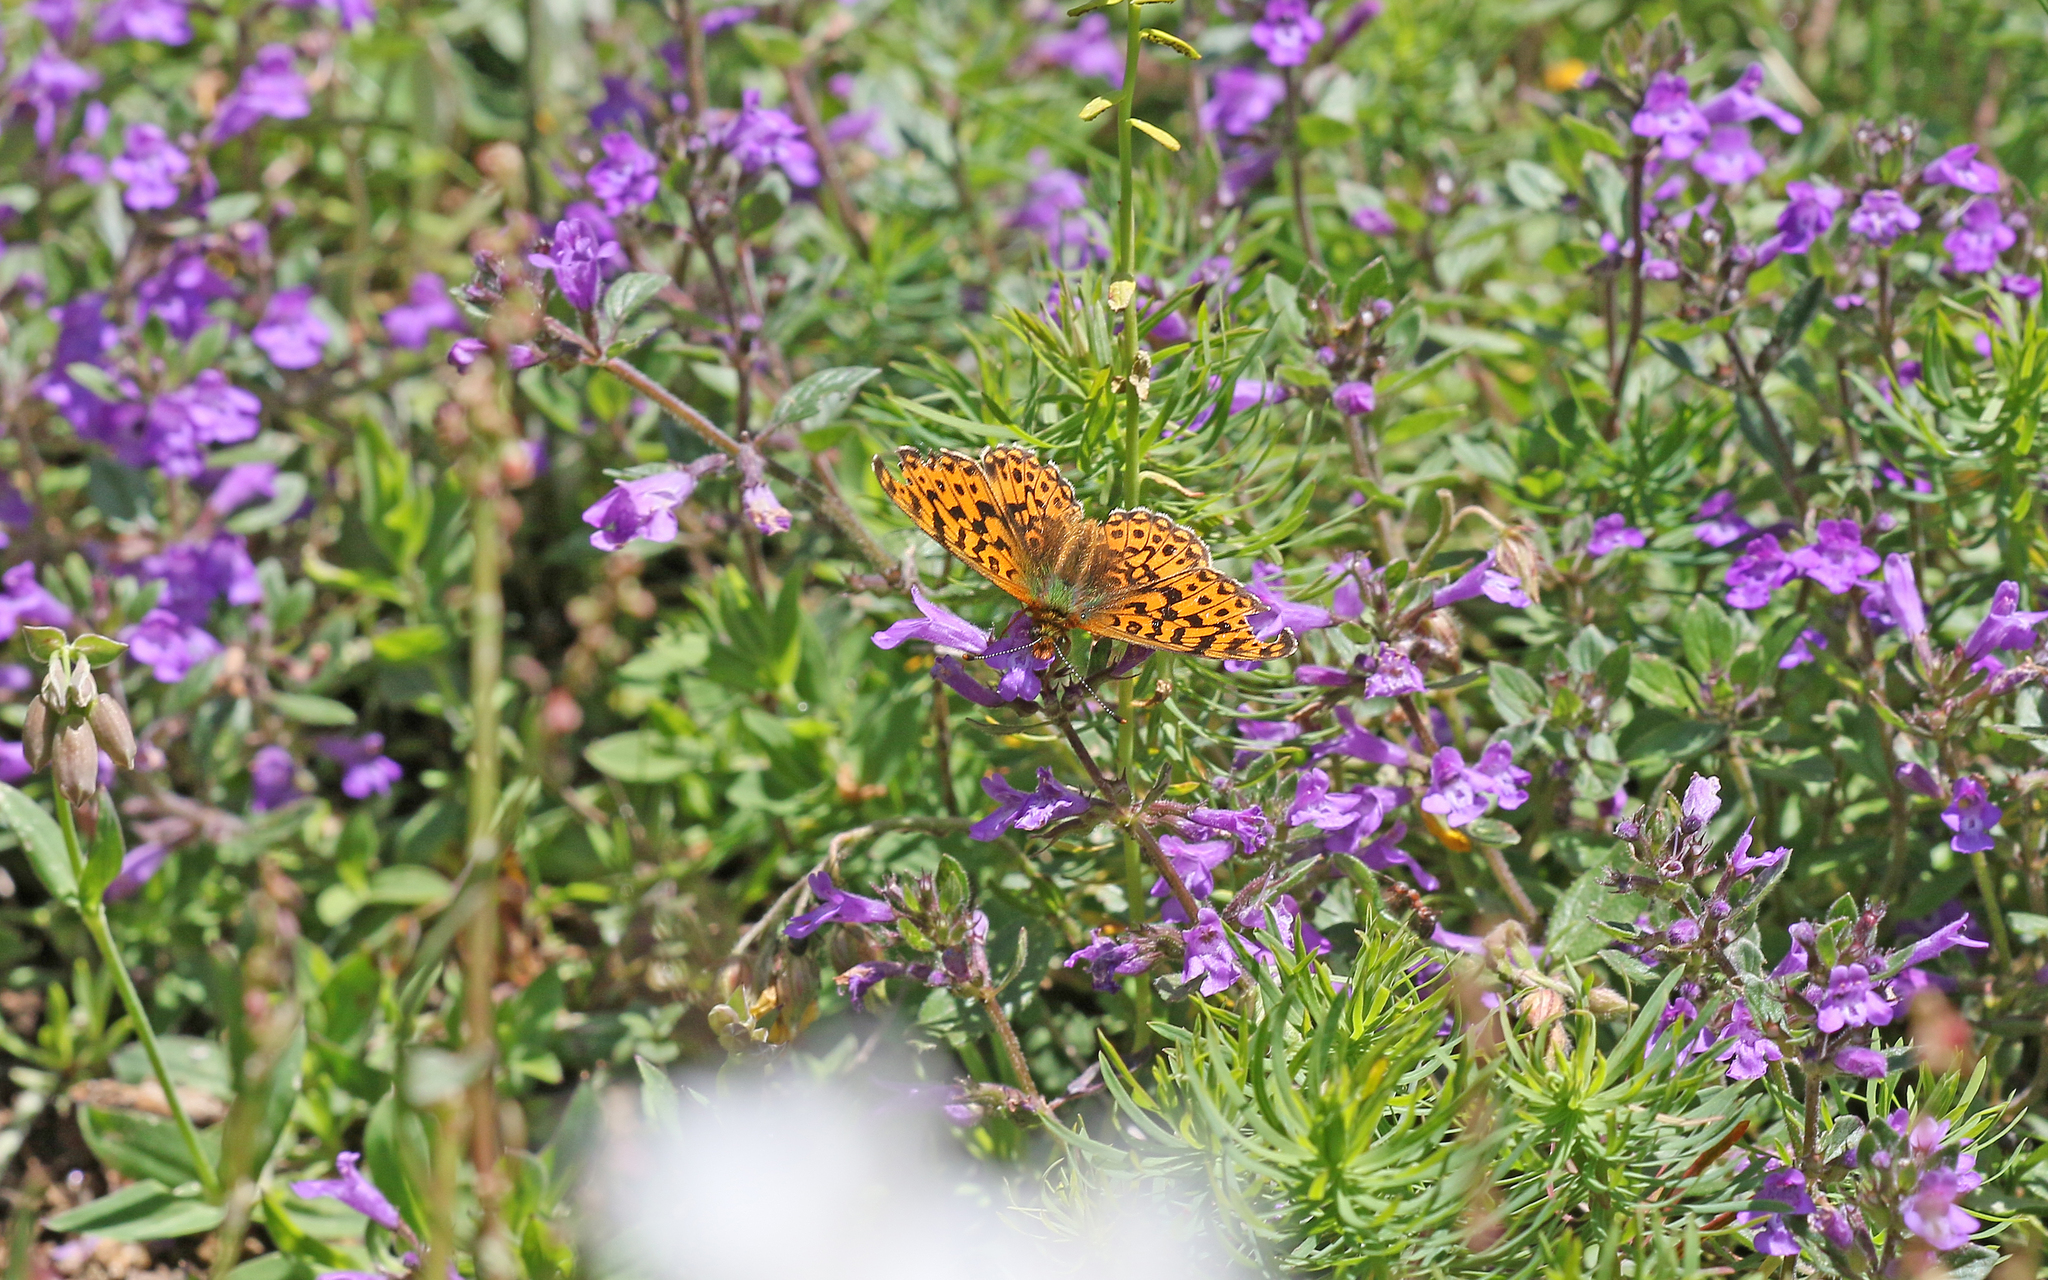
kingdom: Animalia
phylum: Arthropoda
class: Insecta
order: Lepidoptera
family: Nymphalidae
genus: Clossiana
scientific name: Clossiana euphrosyne
